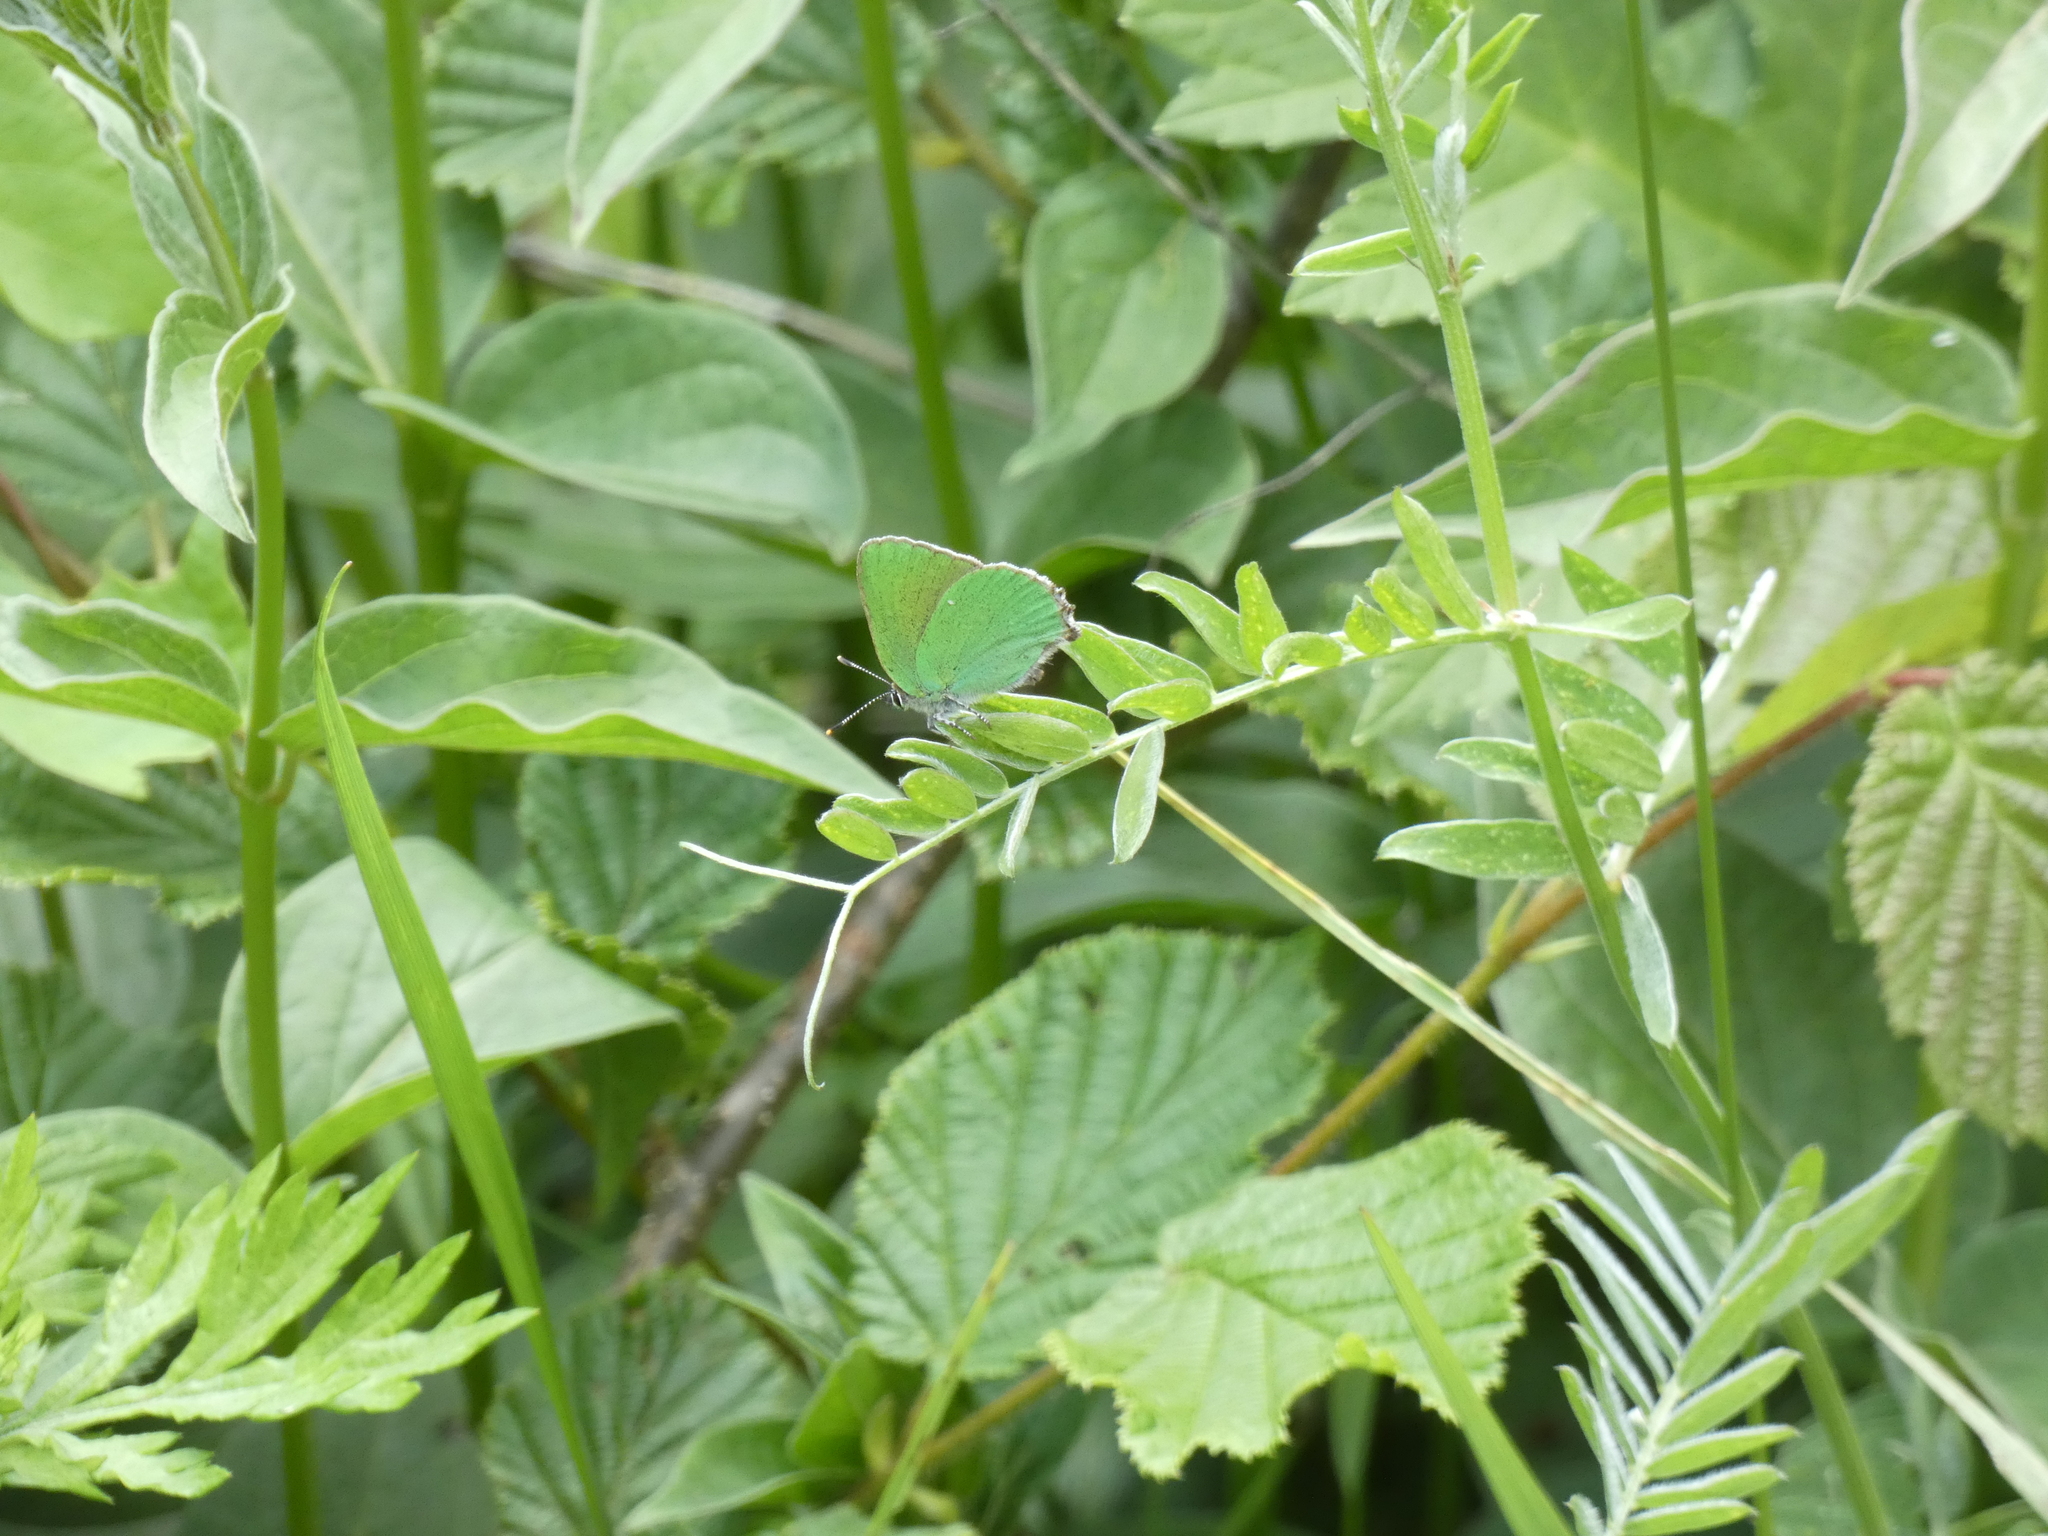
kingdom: Animalia
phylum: Arthropoda
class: Insecta
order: Lepidoptera
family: Lycaenidae
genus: Callophrys
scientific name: Callophrys rubi
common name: Green hairstreak
